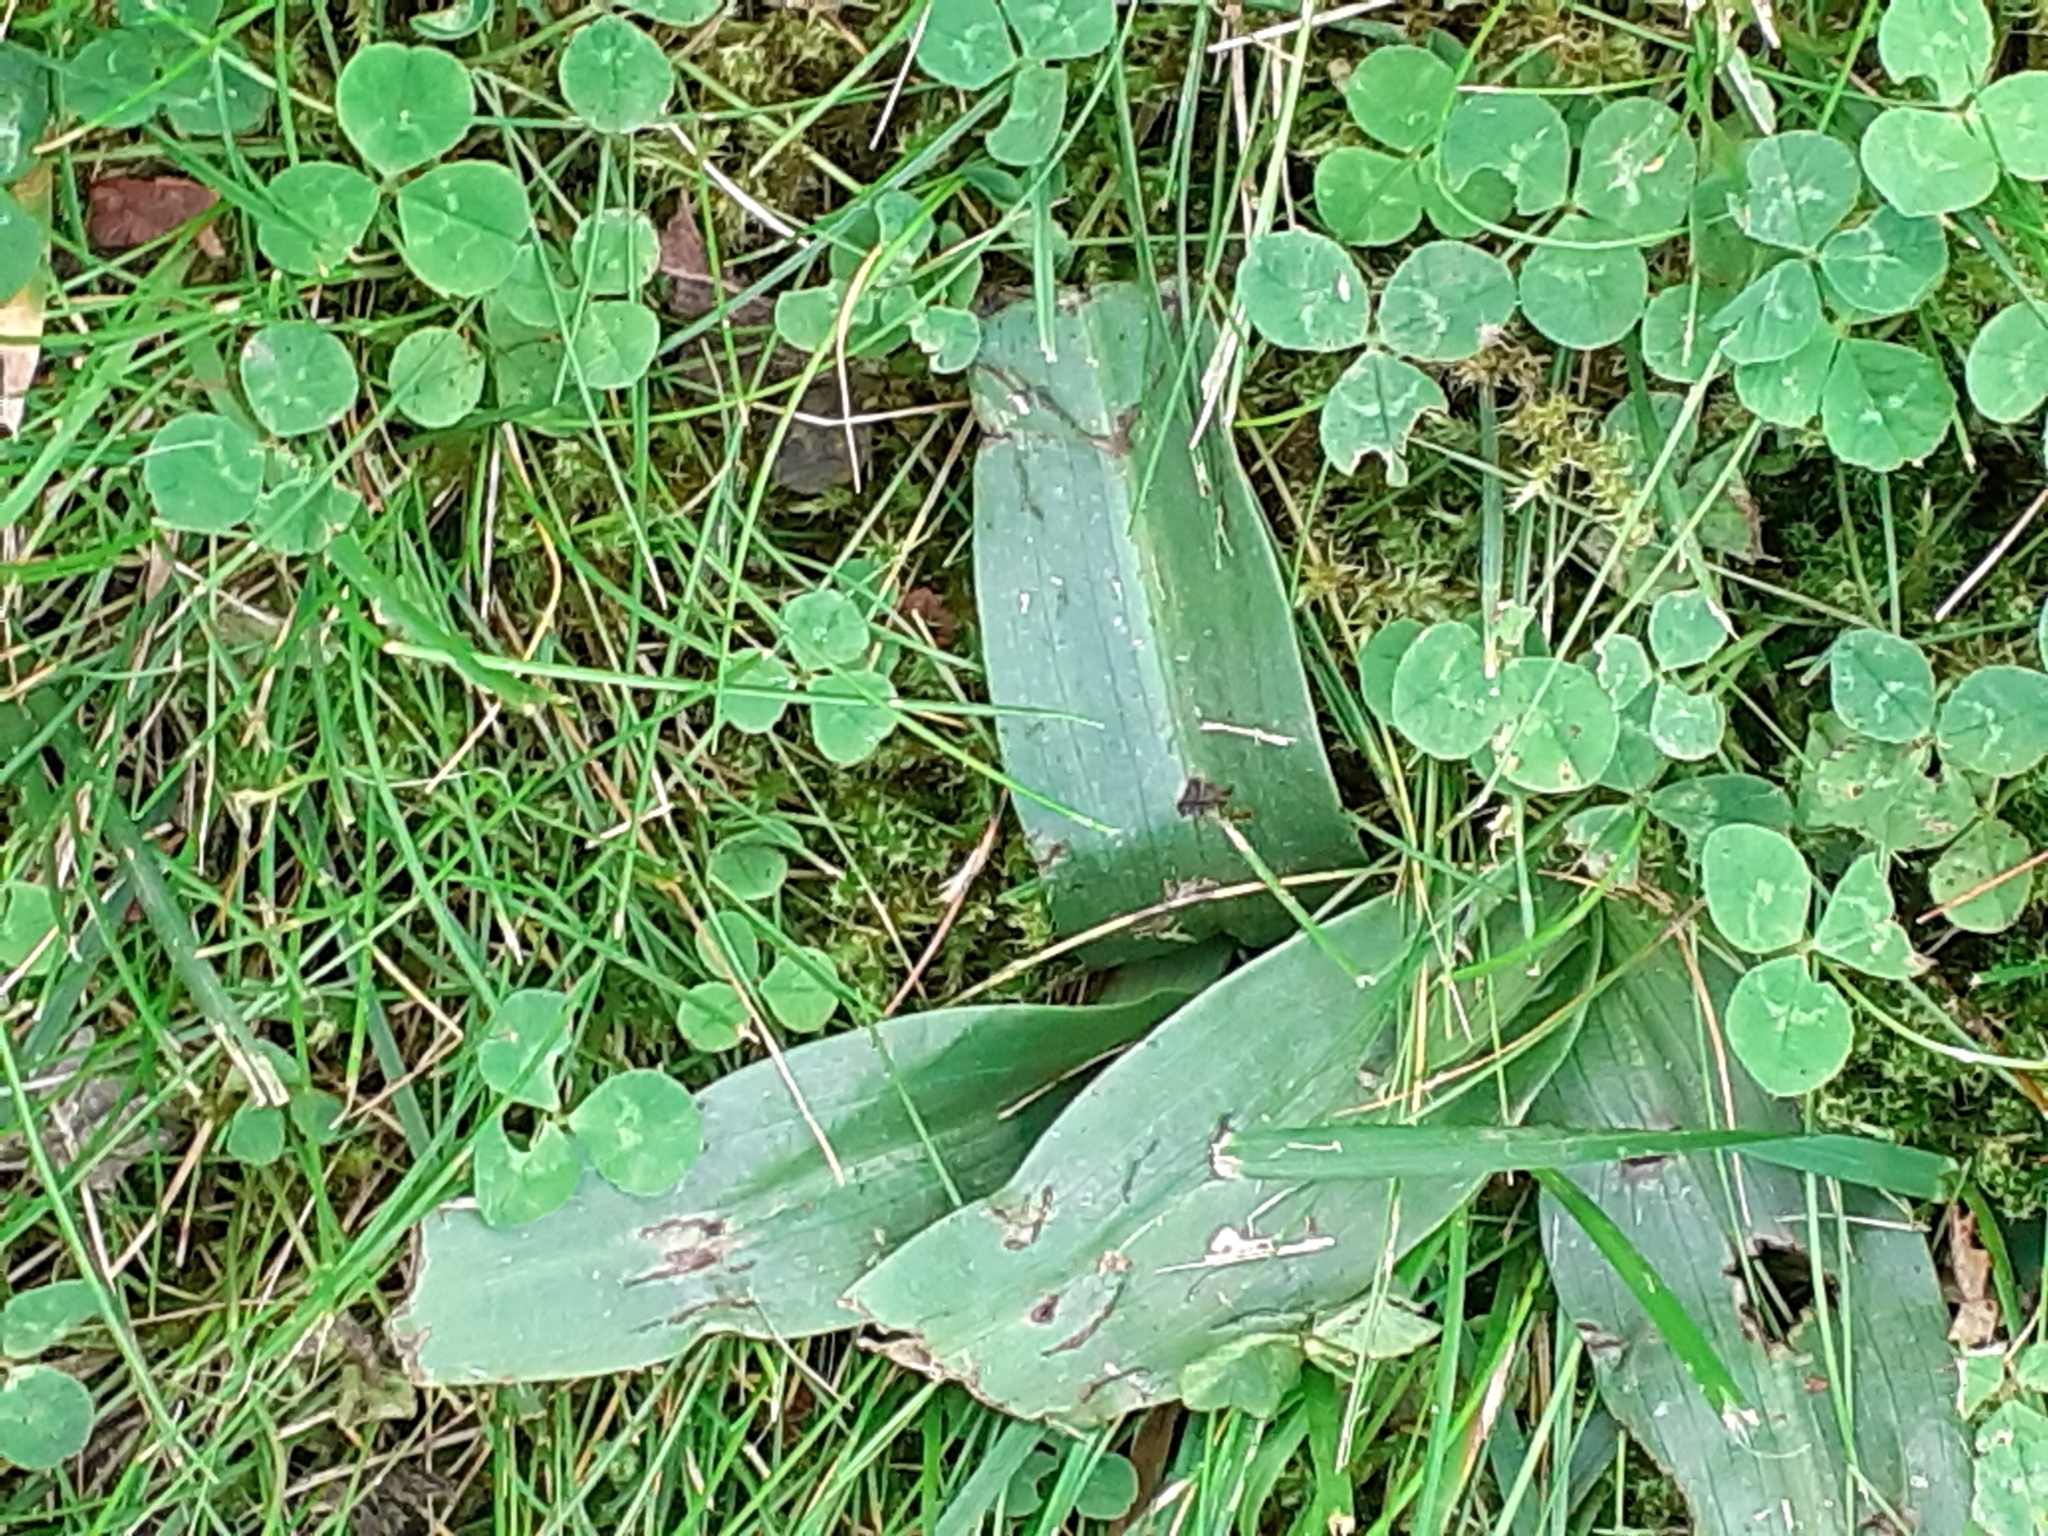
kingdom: Plantae
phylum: Tracheophyta
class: Liliopsida
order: Asparagales
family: Orchidaceae
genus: Ophrys
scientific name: Ophrys apifera
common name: Bee orchid
